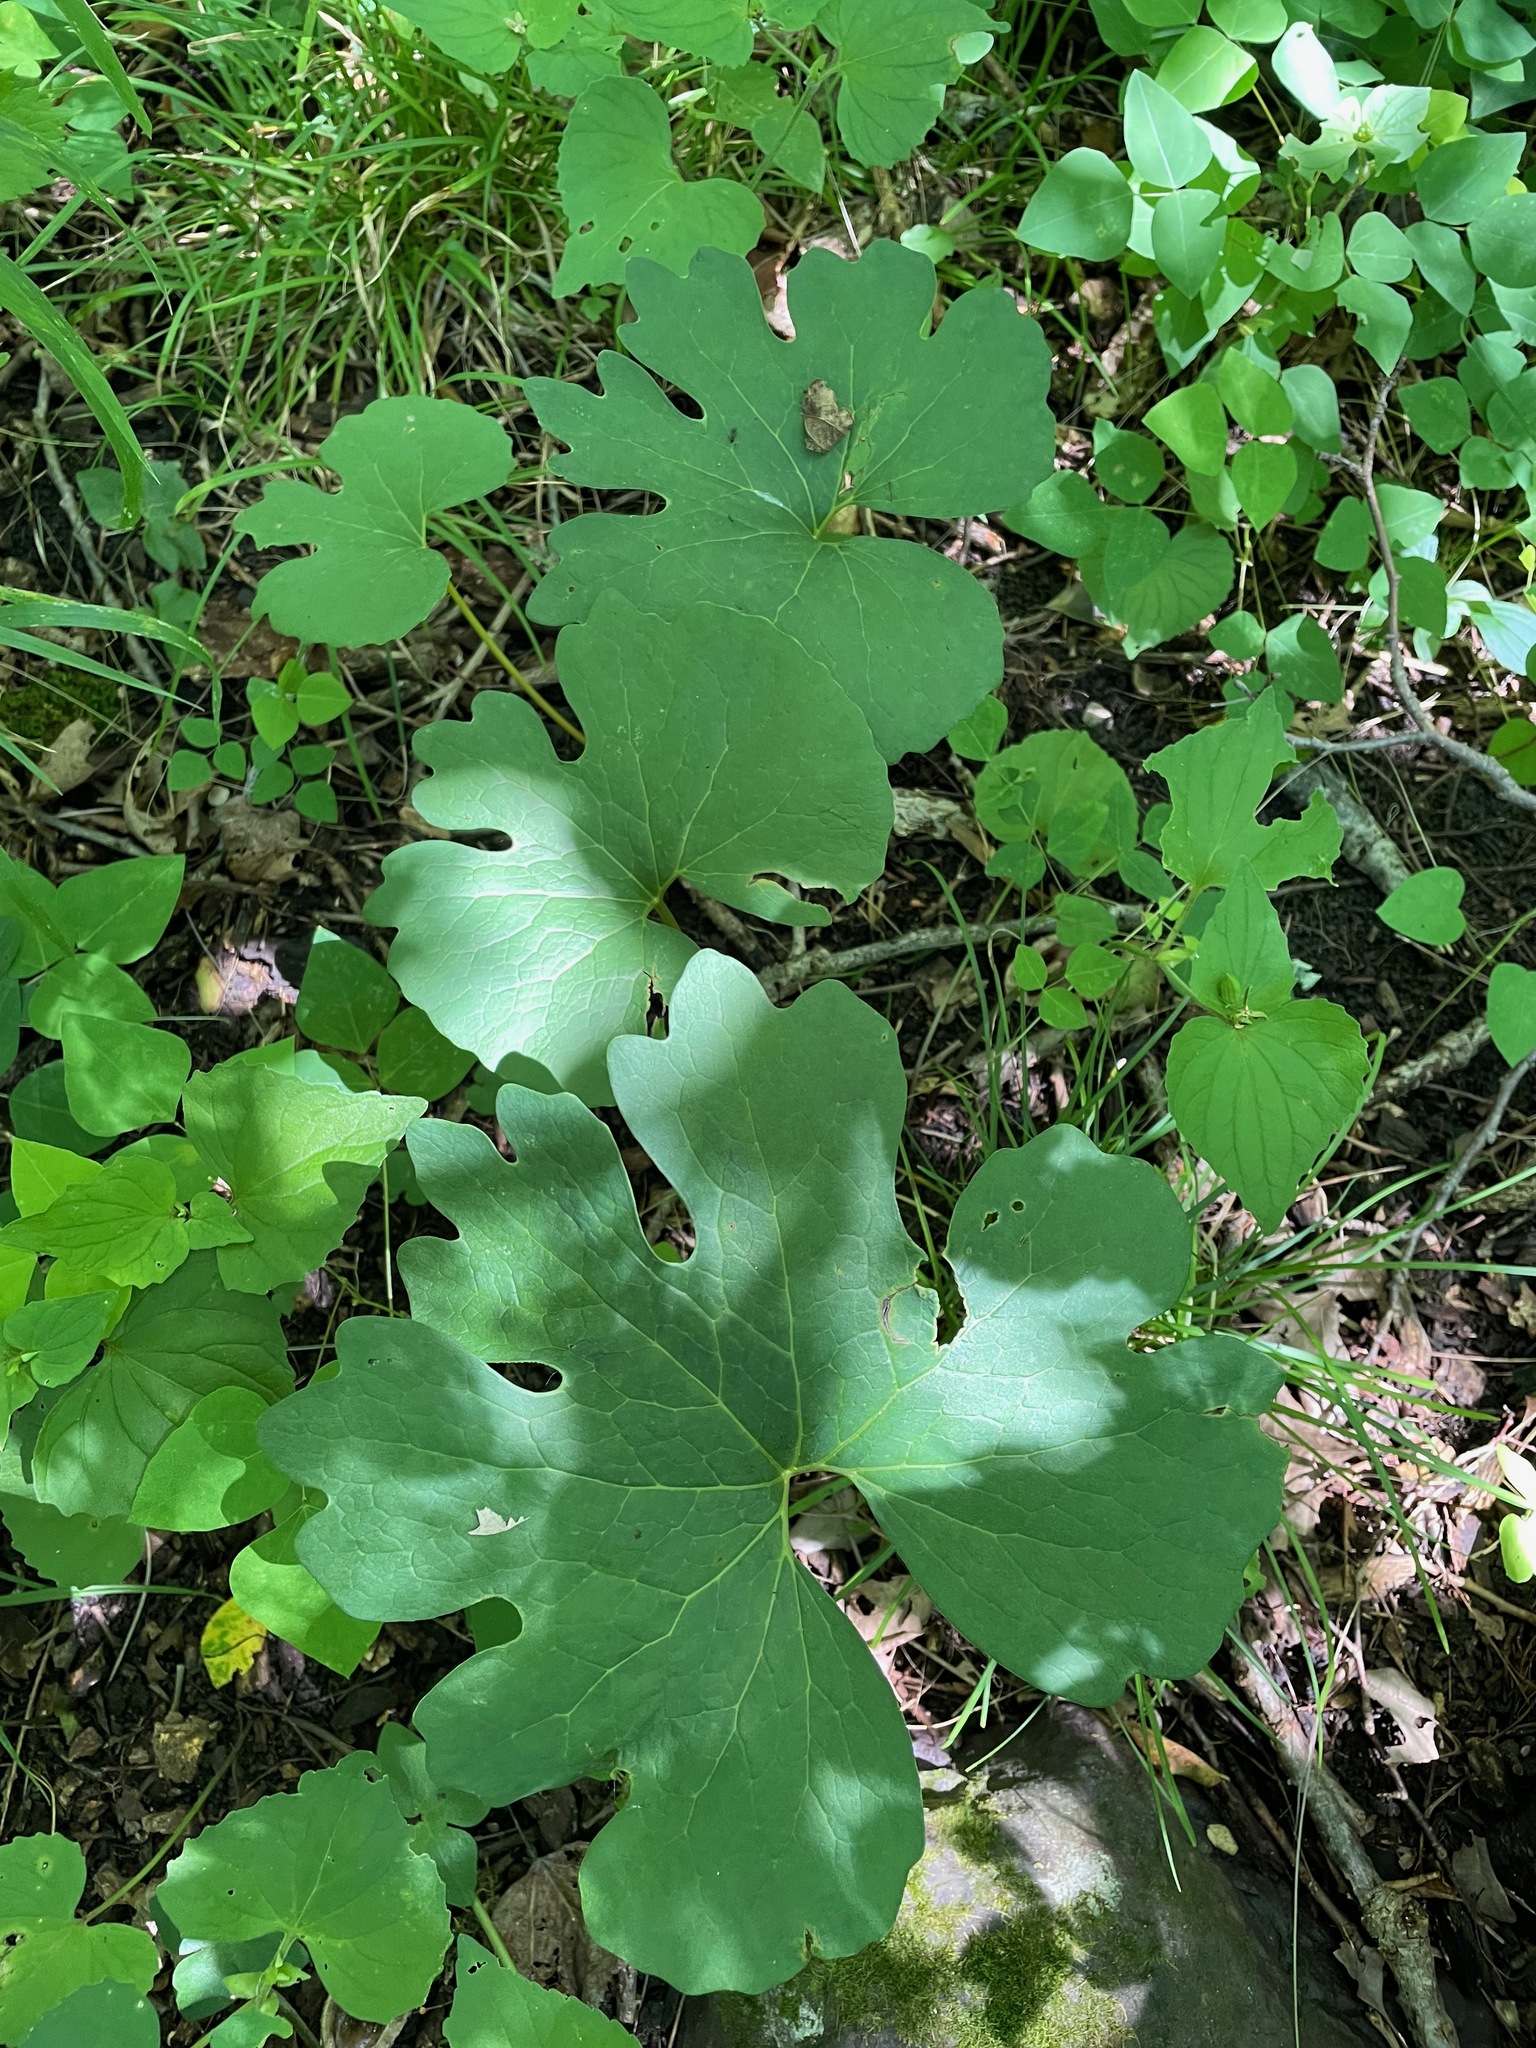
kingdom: Plantae
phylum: Tracheophyta
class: Magnoliopsida
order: Ranunculales
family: Papaveraceae
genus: Sanguinaria
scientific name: Sanguinaria canadensis
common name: Bloodroot
